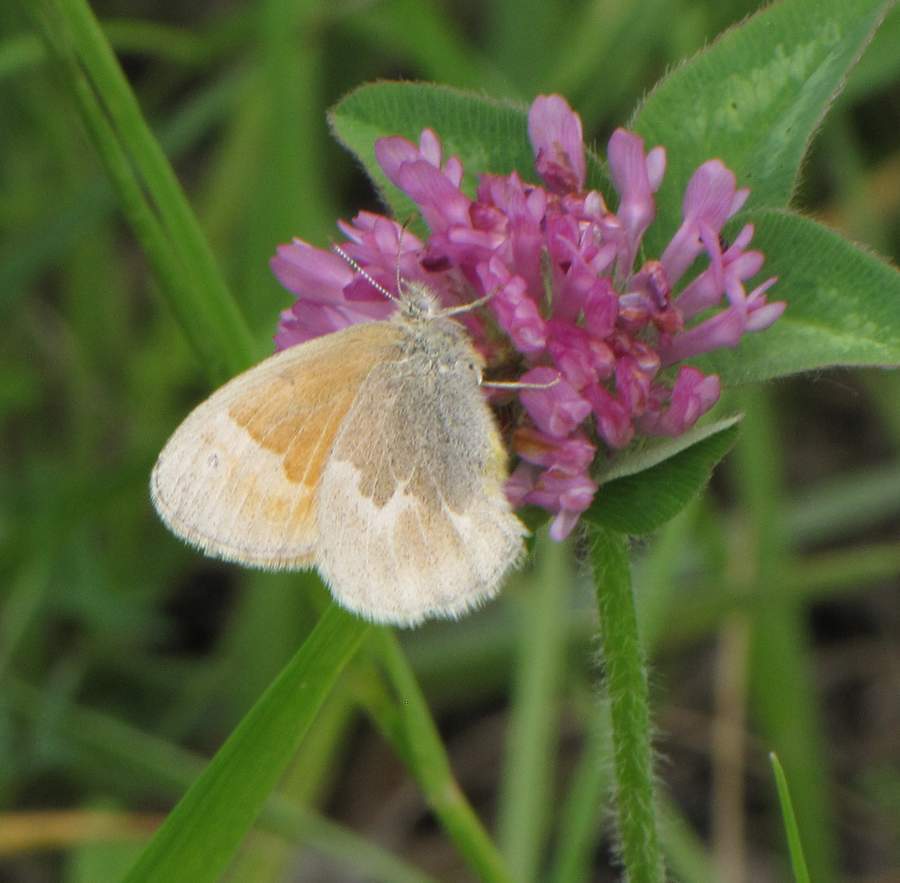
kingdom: Animalia
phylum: Arthropoda
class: Insecta
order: Lepidoptera
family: Nymphalidae
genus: Coenonympha
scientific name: Coenonympha california
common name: Common ringlet
